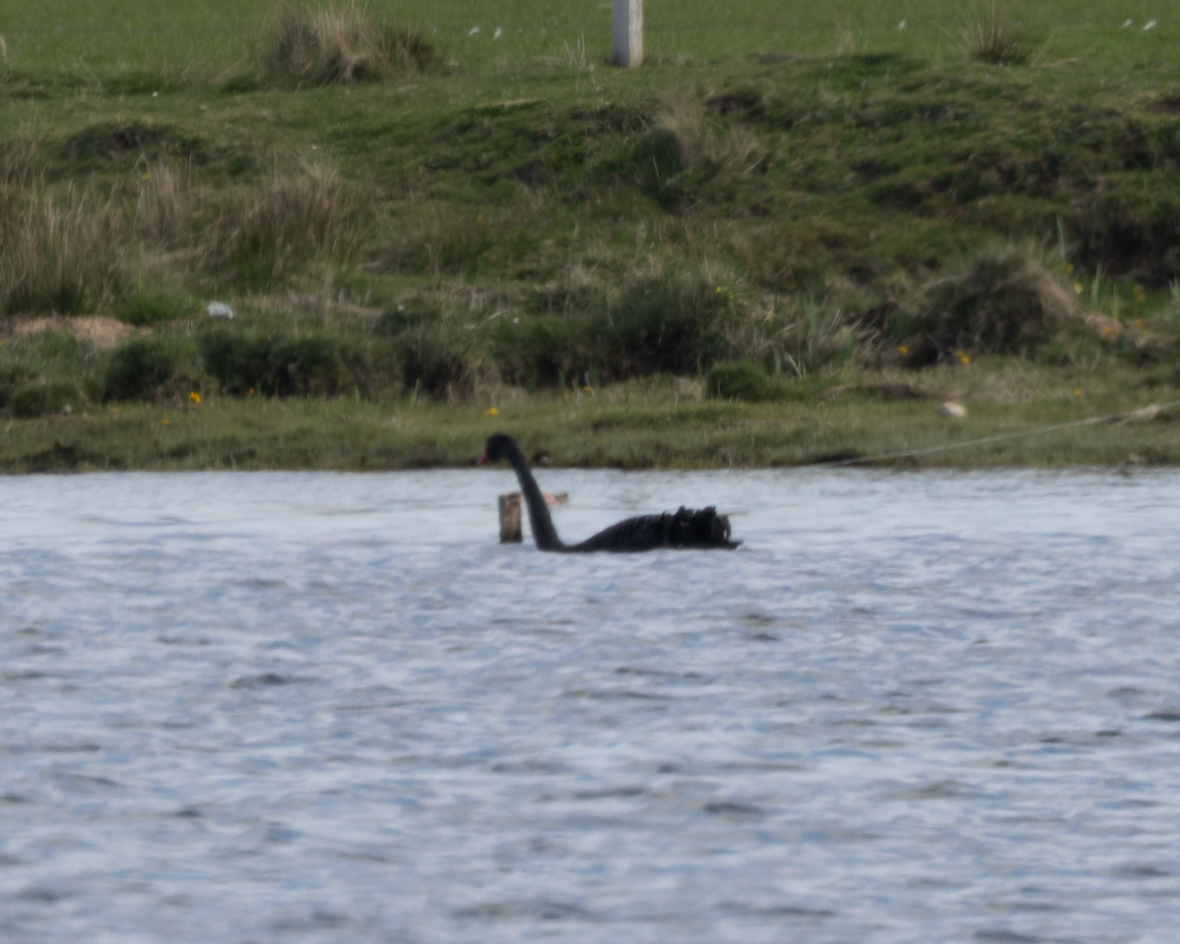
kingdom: Animalia
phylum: Chordata
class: Aves
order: Anseriformes
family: Anatidae
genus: Cygnus
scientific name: Cygnus atratus
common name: Black swan
